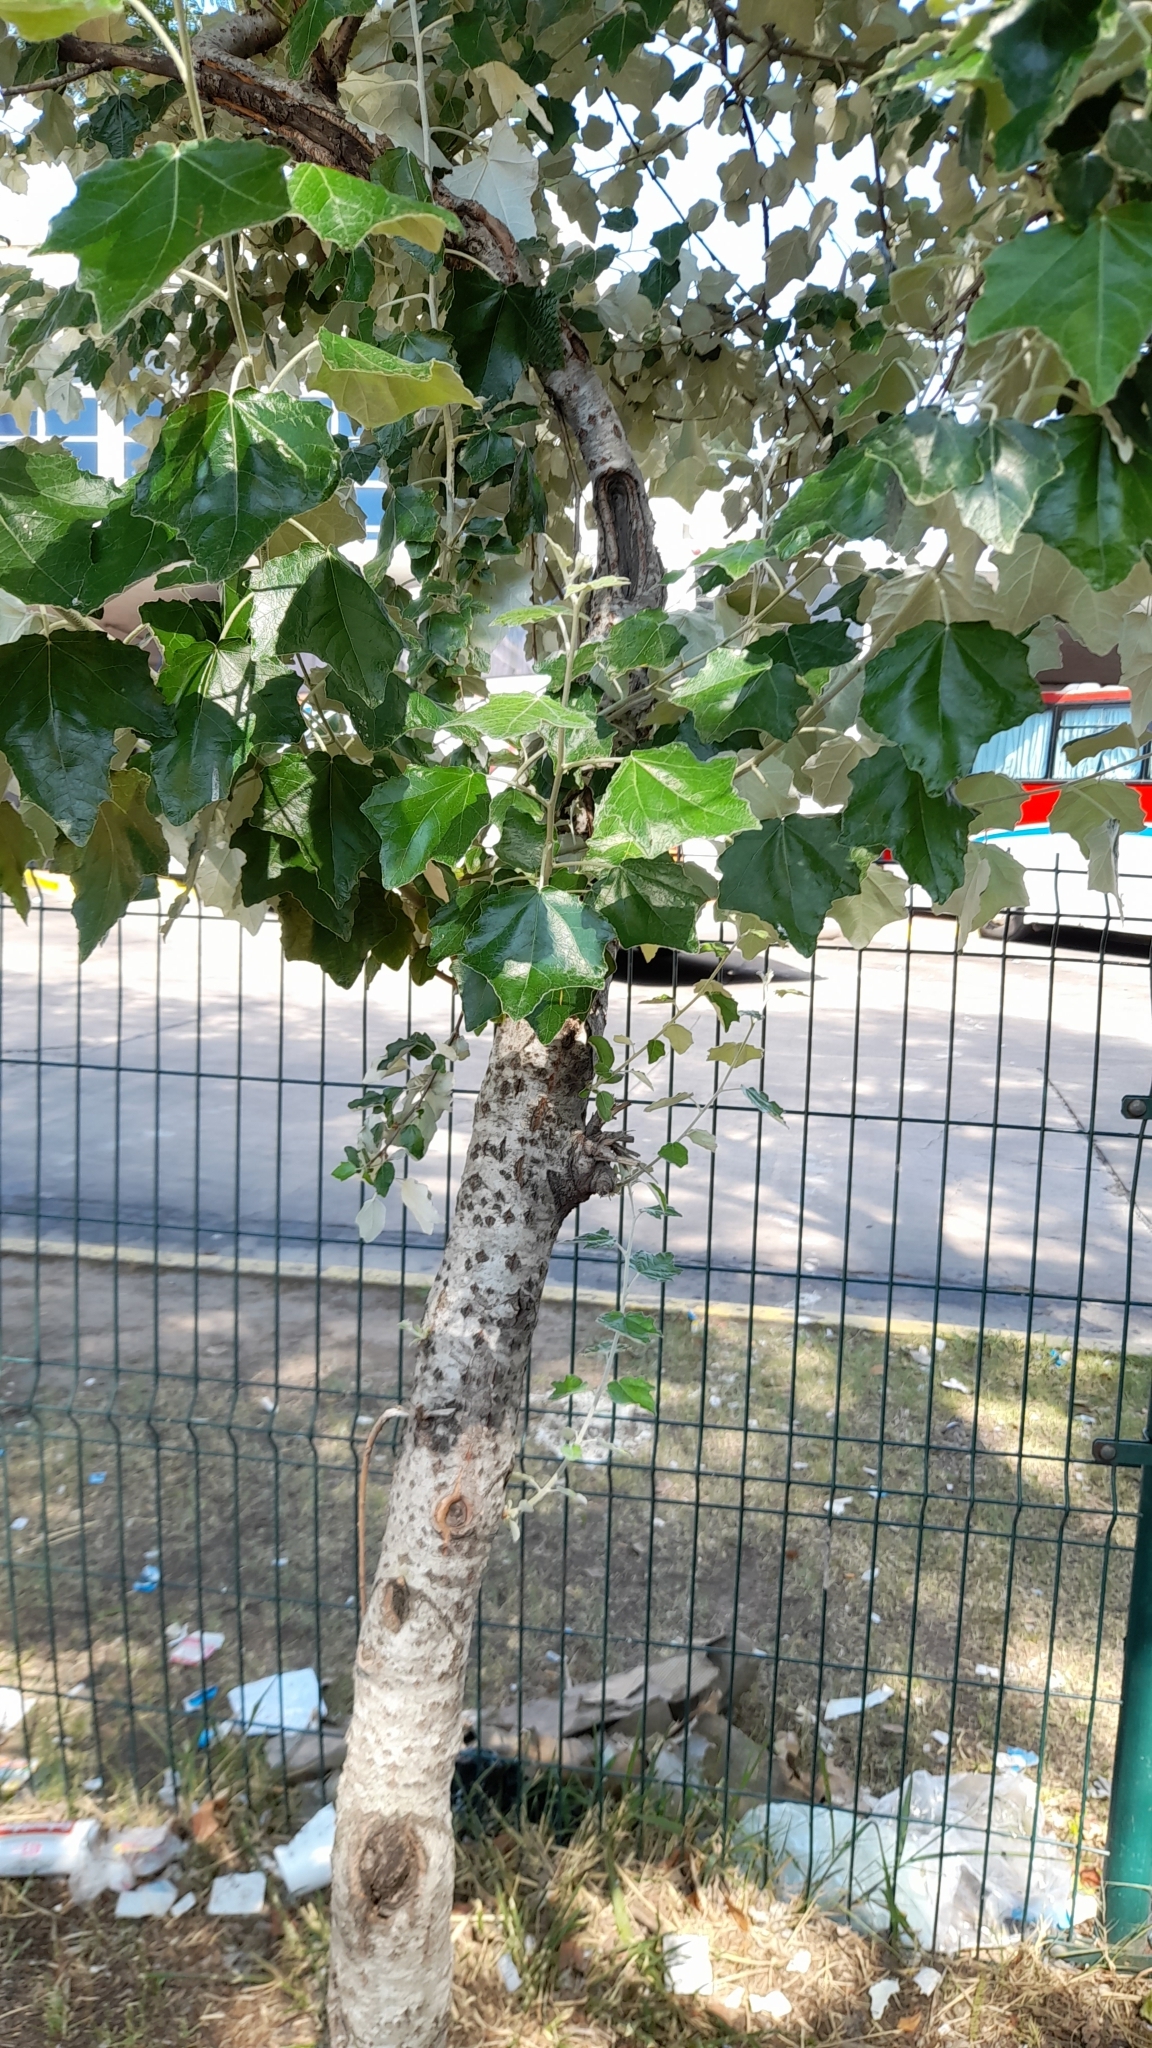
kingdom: Plantae
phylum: Tracheophyta
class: Magnoliopsida
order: Malpighiales
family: Salicaceae
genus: Populus
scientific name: Populus alba
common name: White poplar
